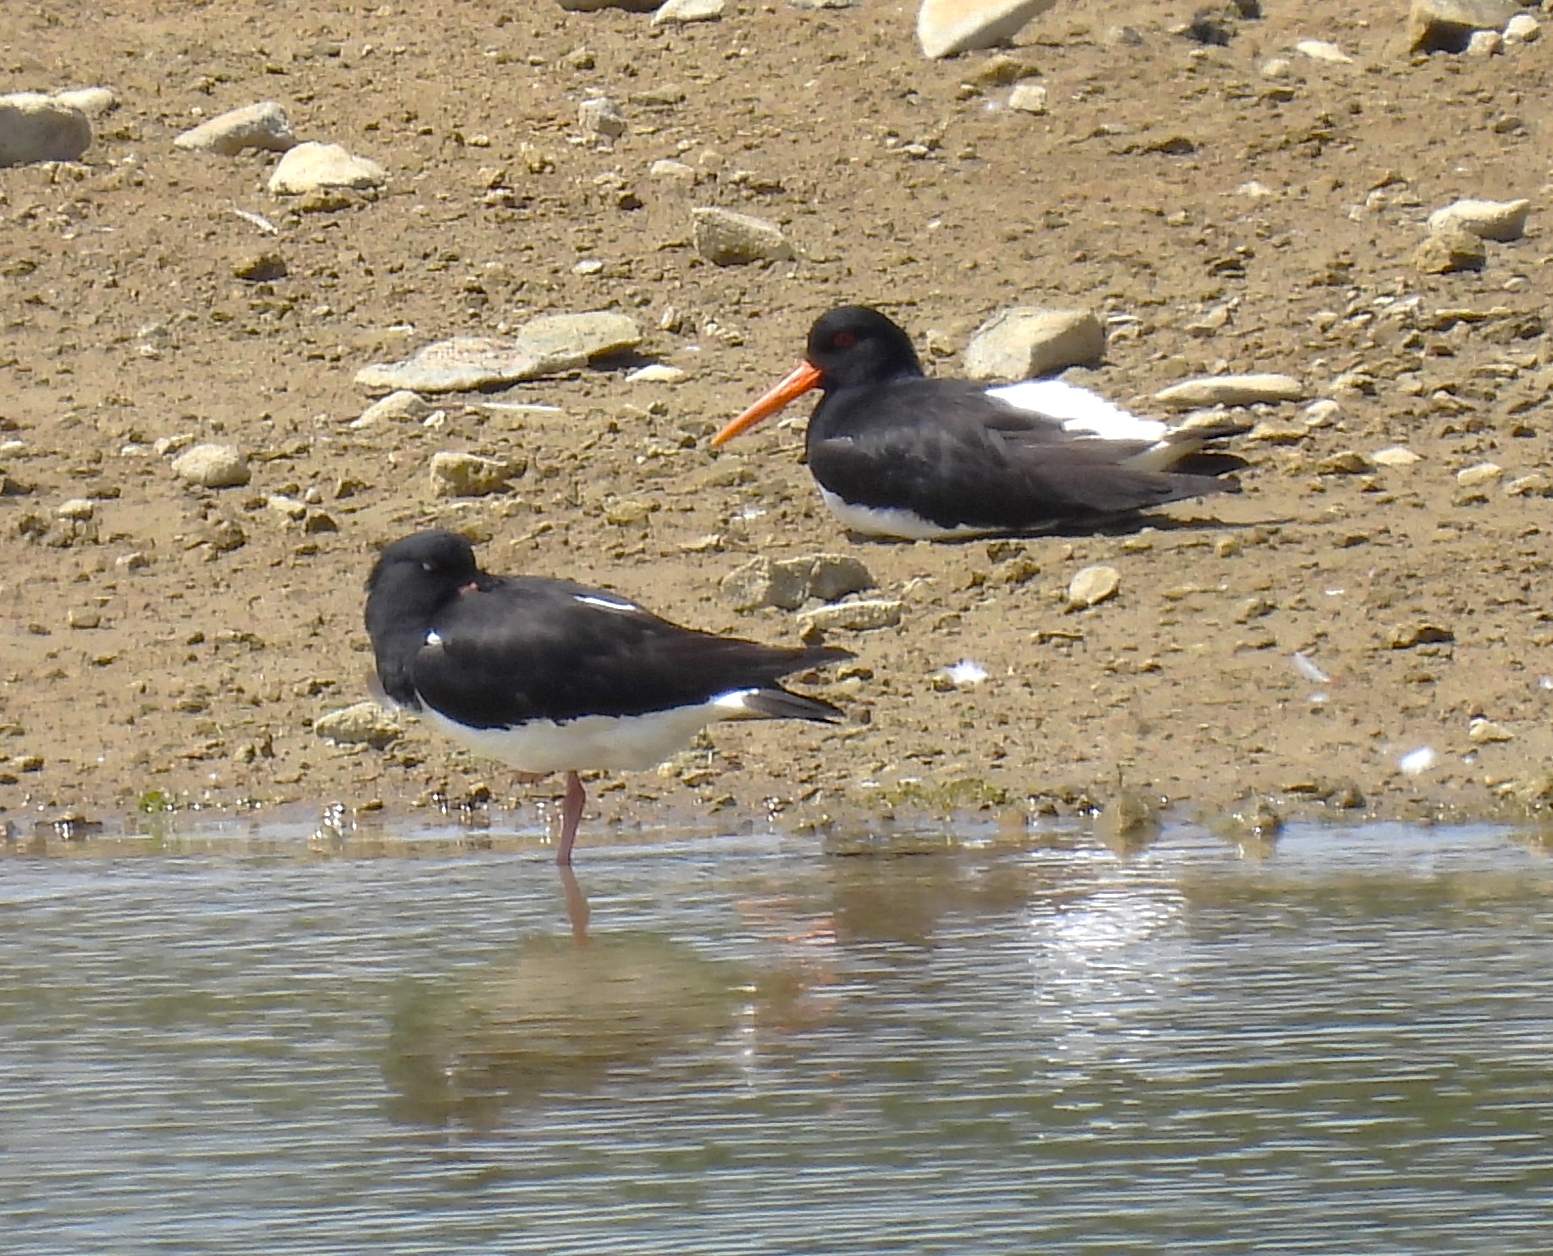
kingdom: Animalia
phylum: Chordata
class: Aves
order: Charadriiformes
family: Haematopodidae
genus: Haematopus
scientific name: Haematopus ostralegus
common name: Eurasian oystercatcher
